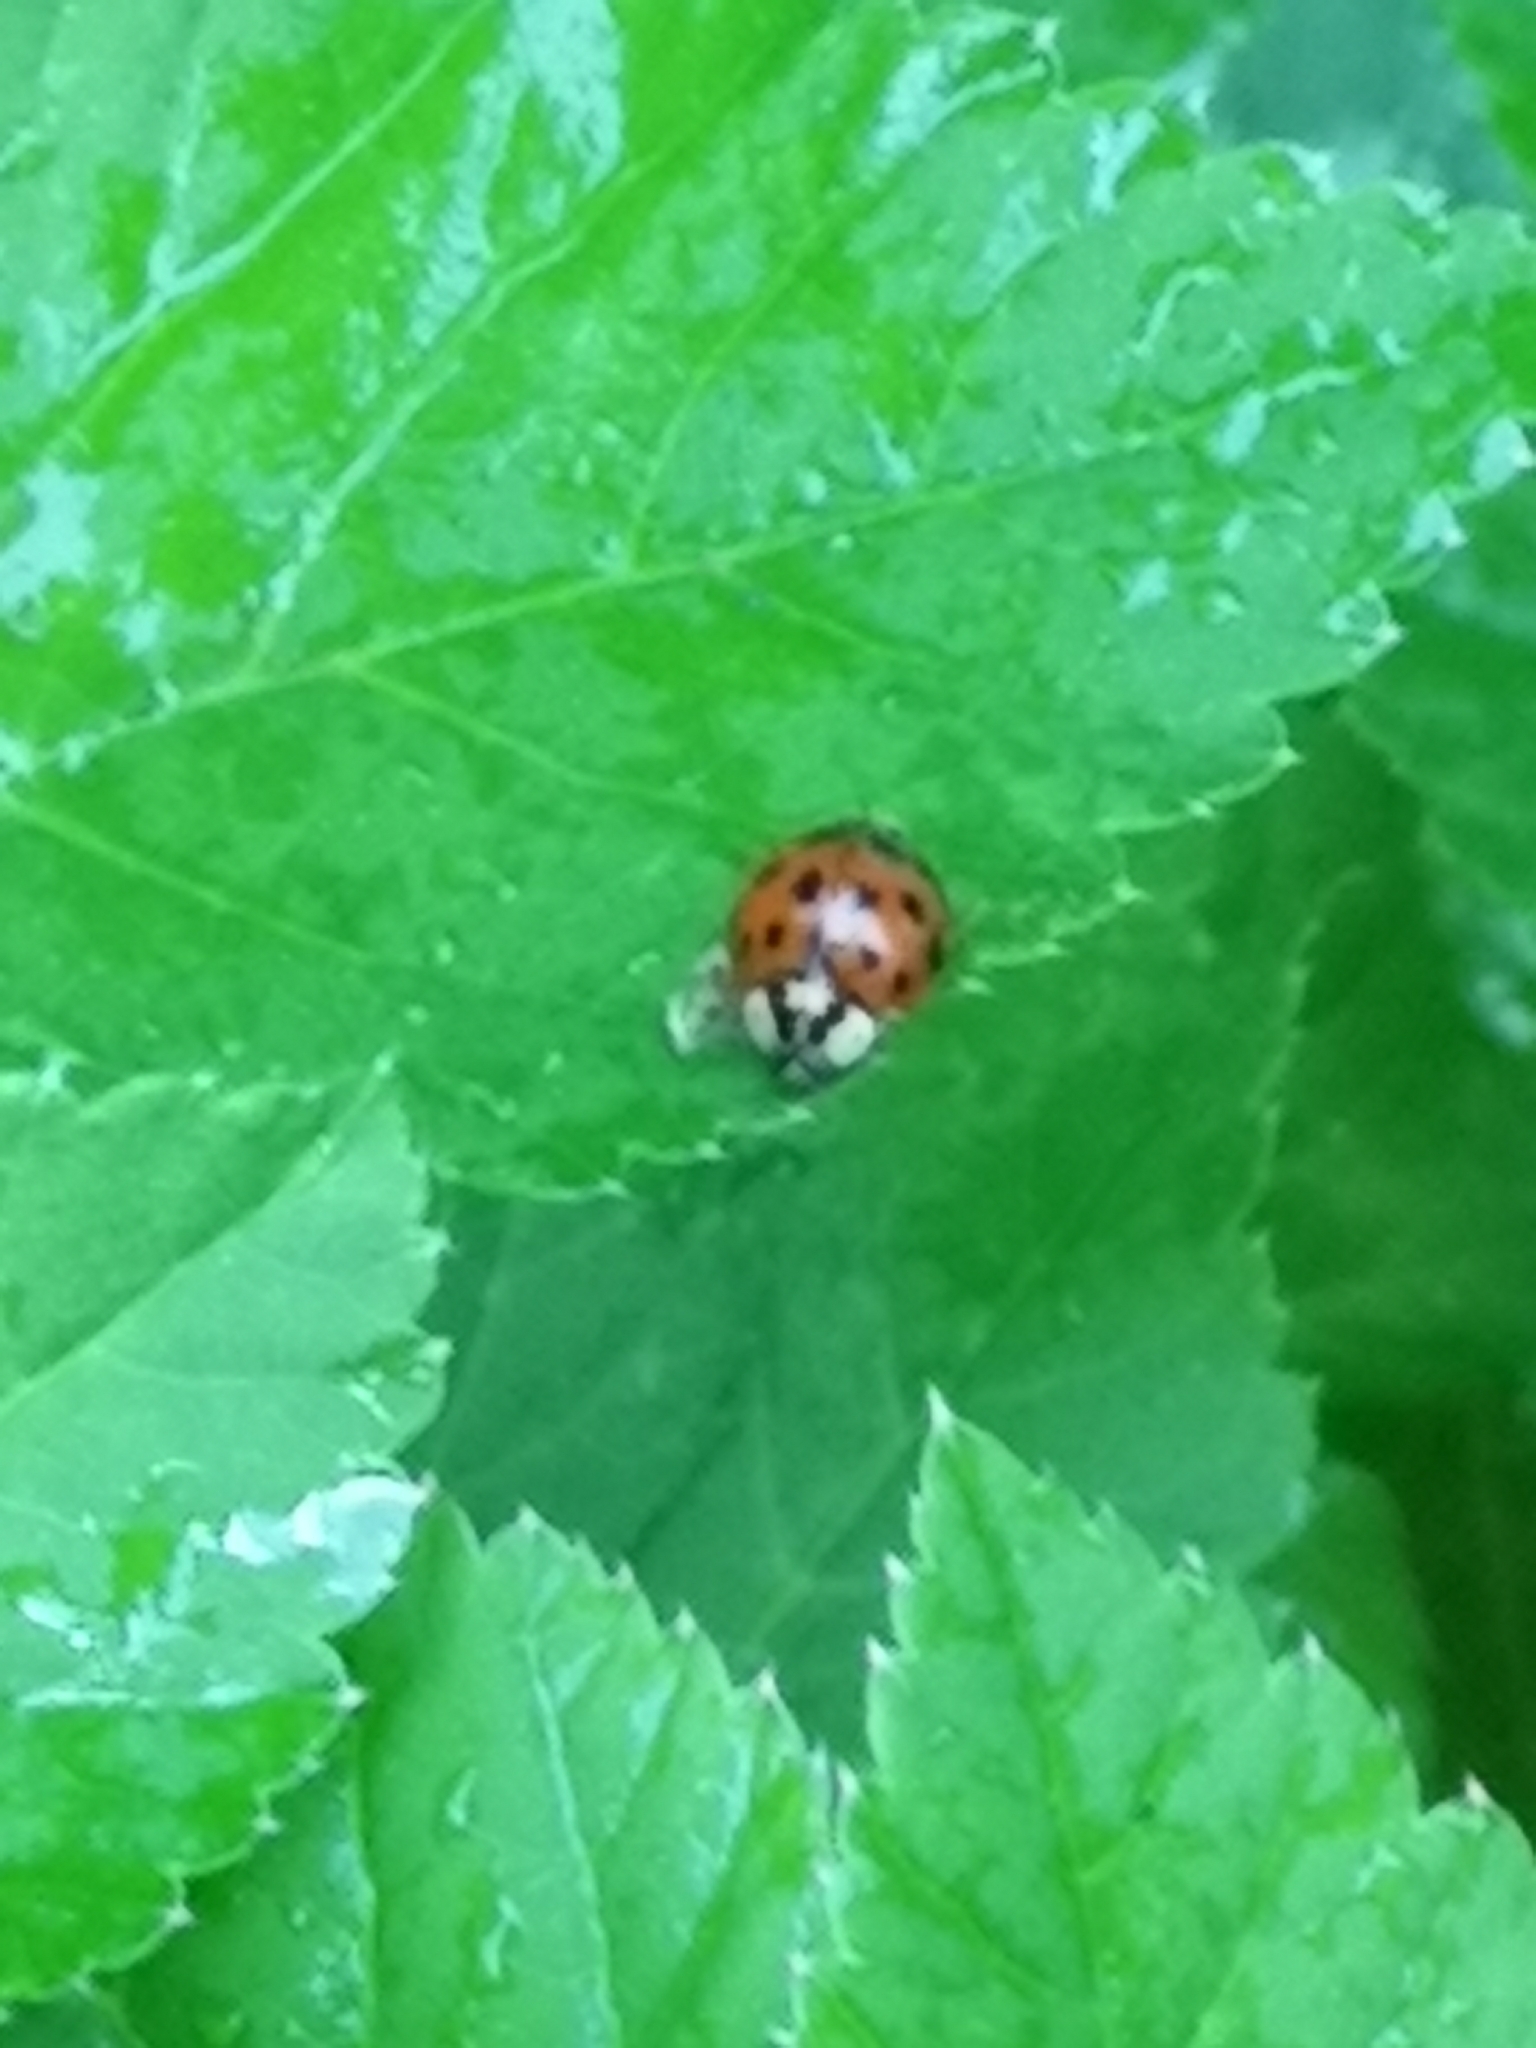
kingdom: Animalia
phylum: Arthropoda
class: Insecta
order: Coleoptera
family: Coccinellidae
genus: Harmonia
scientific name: Harmonia axyridis
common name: Harlequin ladybird
